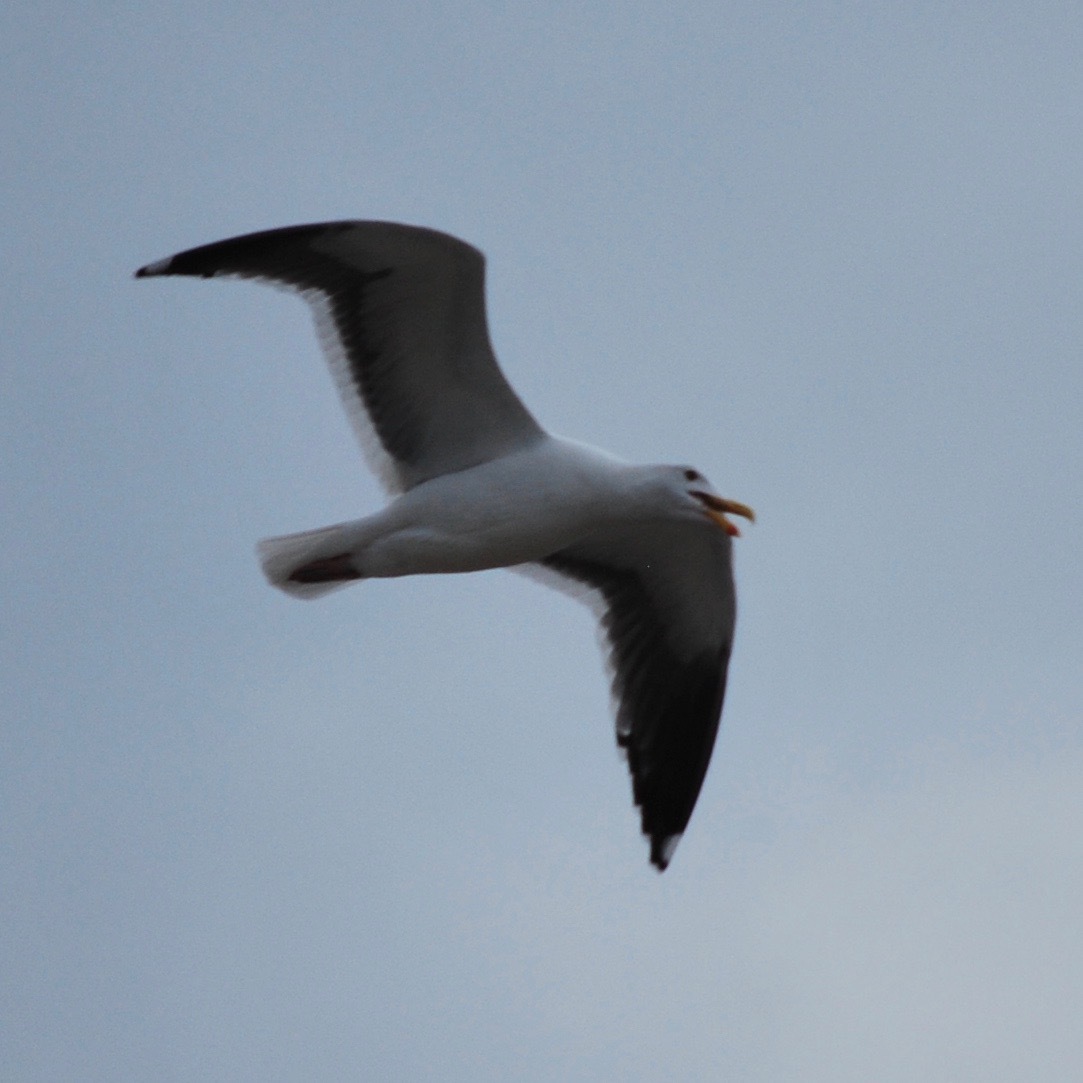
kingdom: Animalia
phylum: Chordata
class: Aves
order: Charadriiformes
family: Laridae
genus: Larus
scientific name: Larus occidentalis
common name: Western gull
